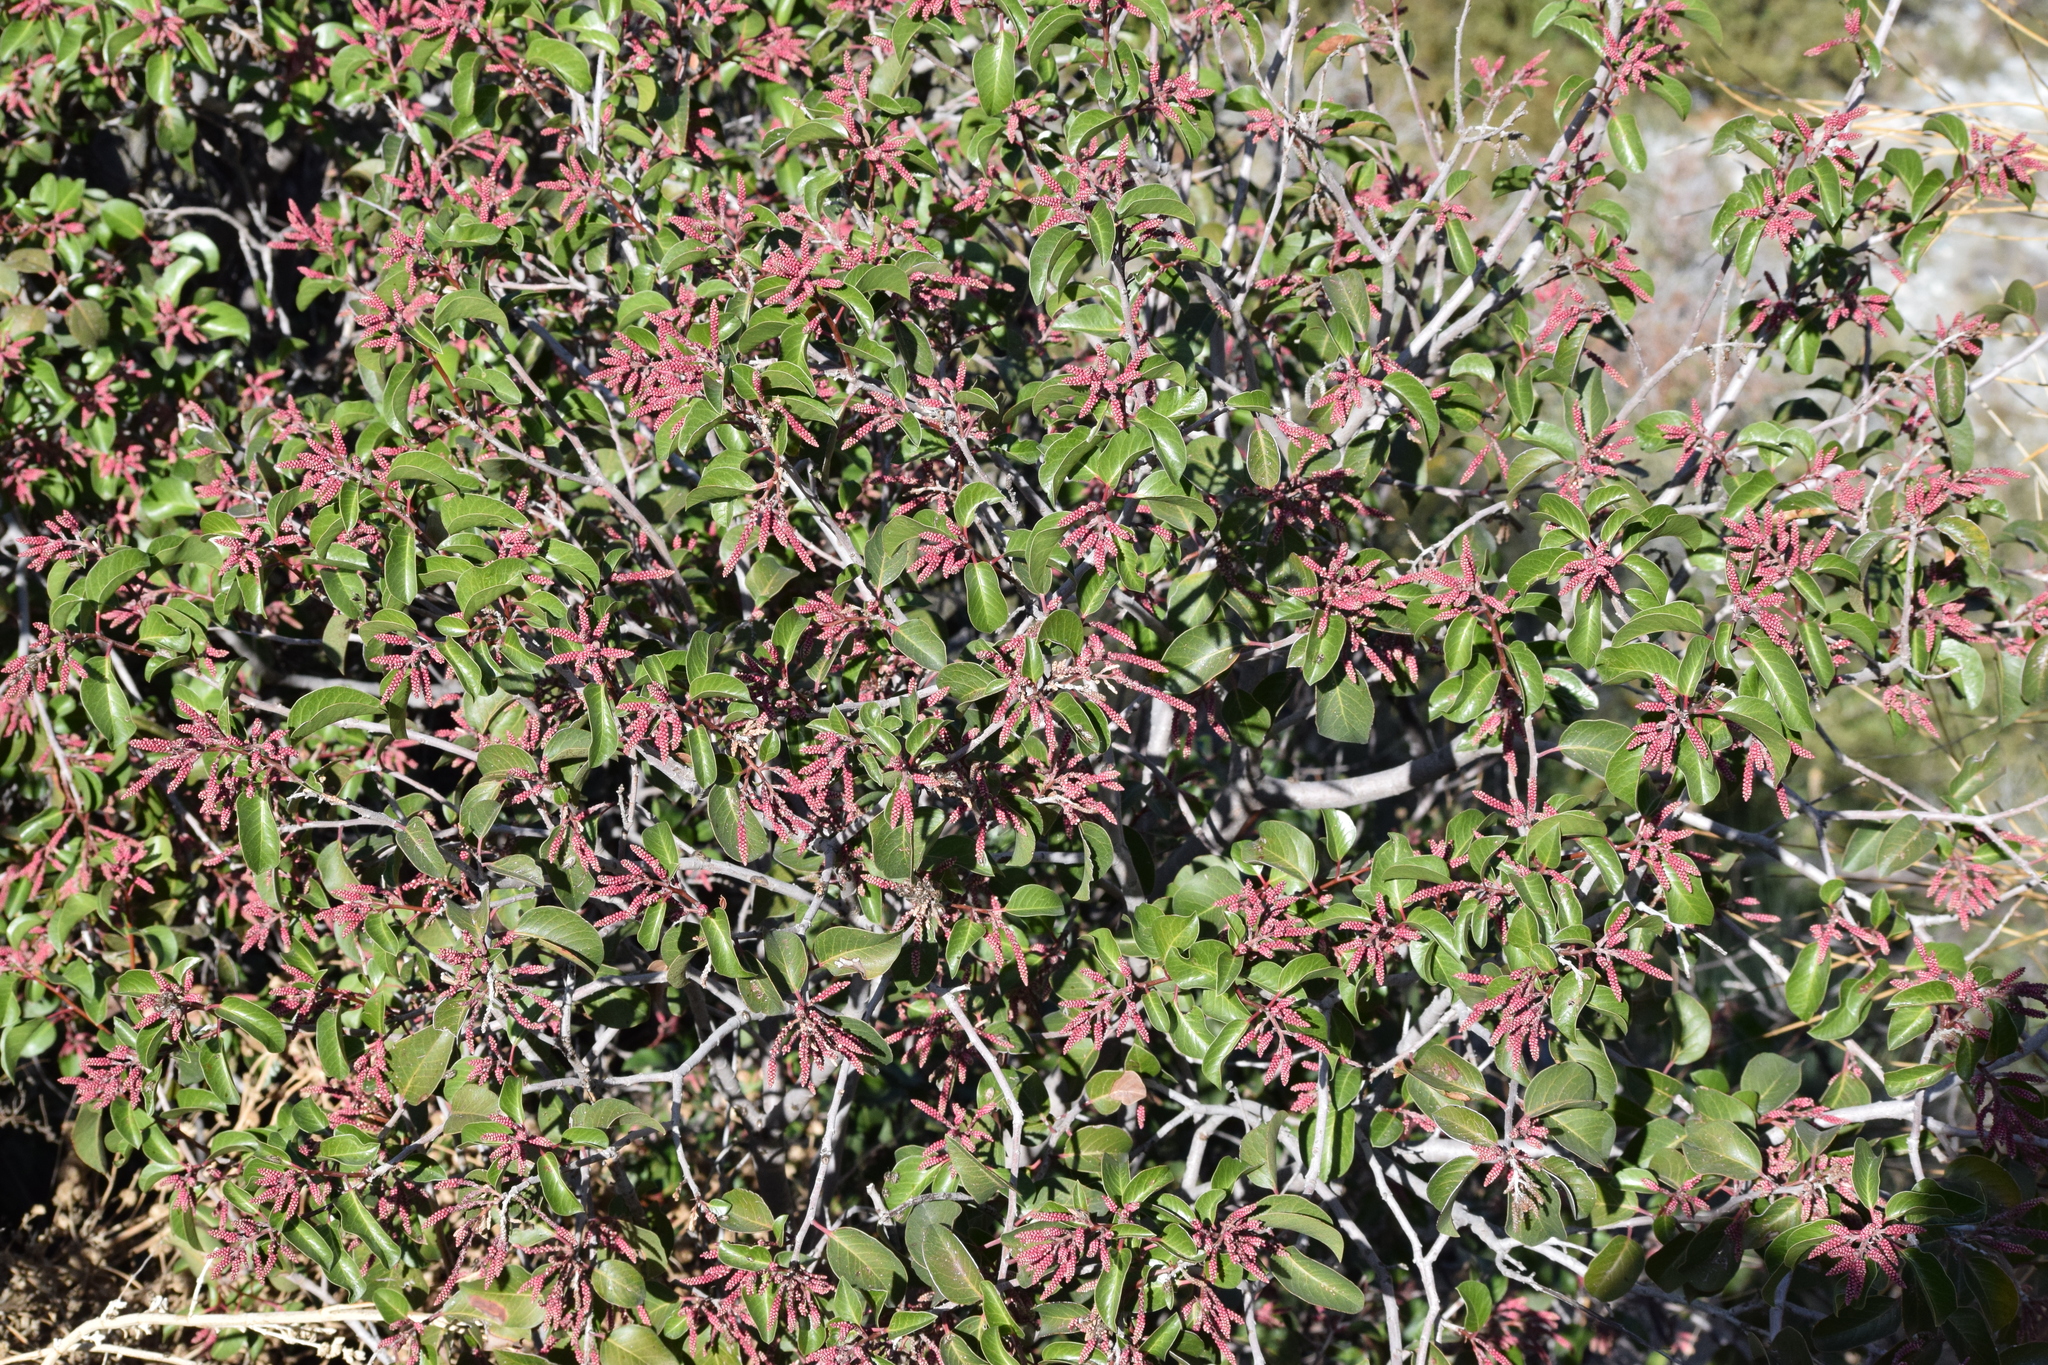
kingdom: Plantae
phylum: Tracheophyta
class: Magnoliopsida
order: Sapindales
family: Anacardiaceae
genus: Rhus
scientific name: Rhus ovata
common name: Sugar sumac
